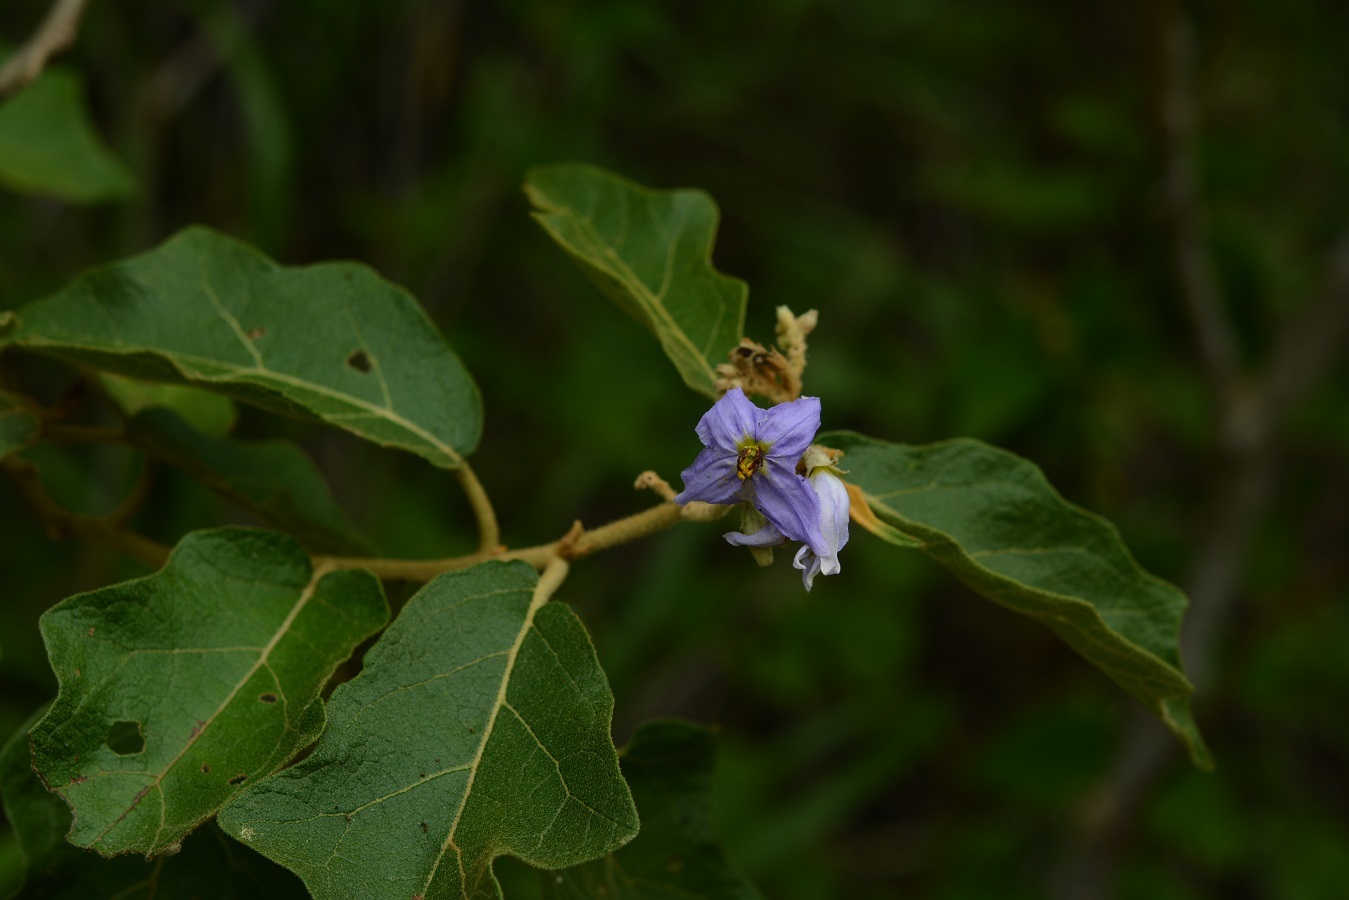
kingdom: Plantae
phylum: Tracheophyta
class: Magnoliopsida
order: Solanales
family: Solanaceae
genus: Solanum
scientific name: Solanum lanceolatum
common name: Orangeberry nightshade
